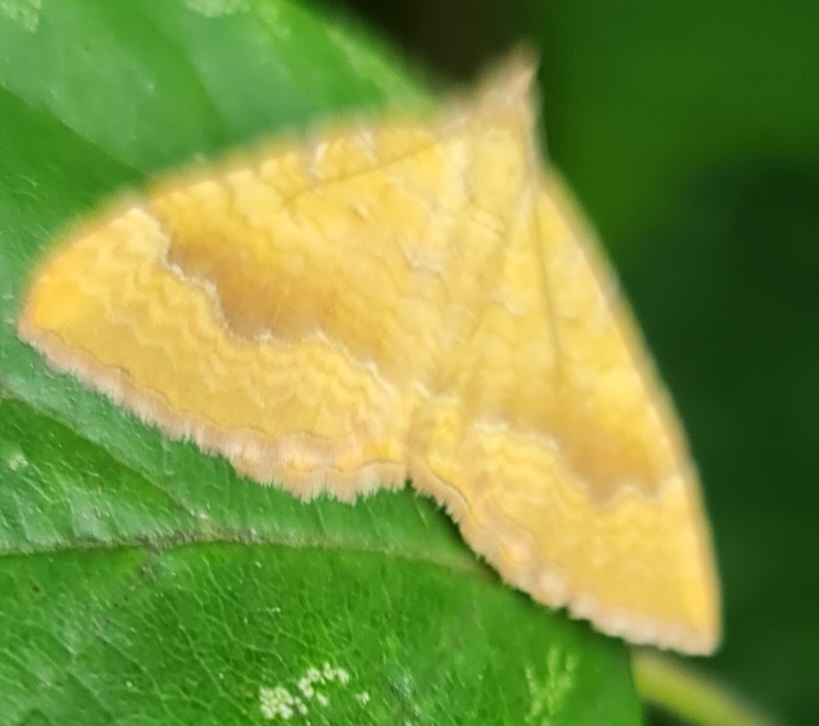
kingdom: Animalia
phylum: Arthropoda
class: Insecta
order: Lepidoptera
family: Geometridae
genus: Camptogramma
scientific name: Camptogramma bilineata
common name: Yellow shell
